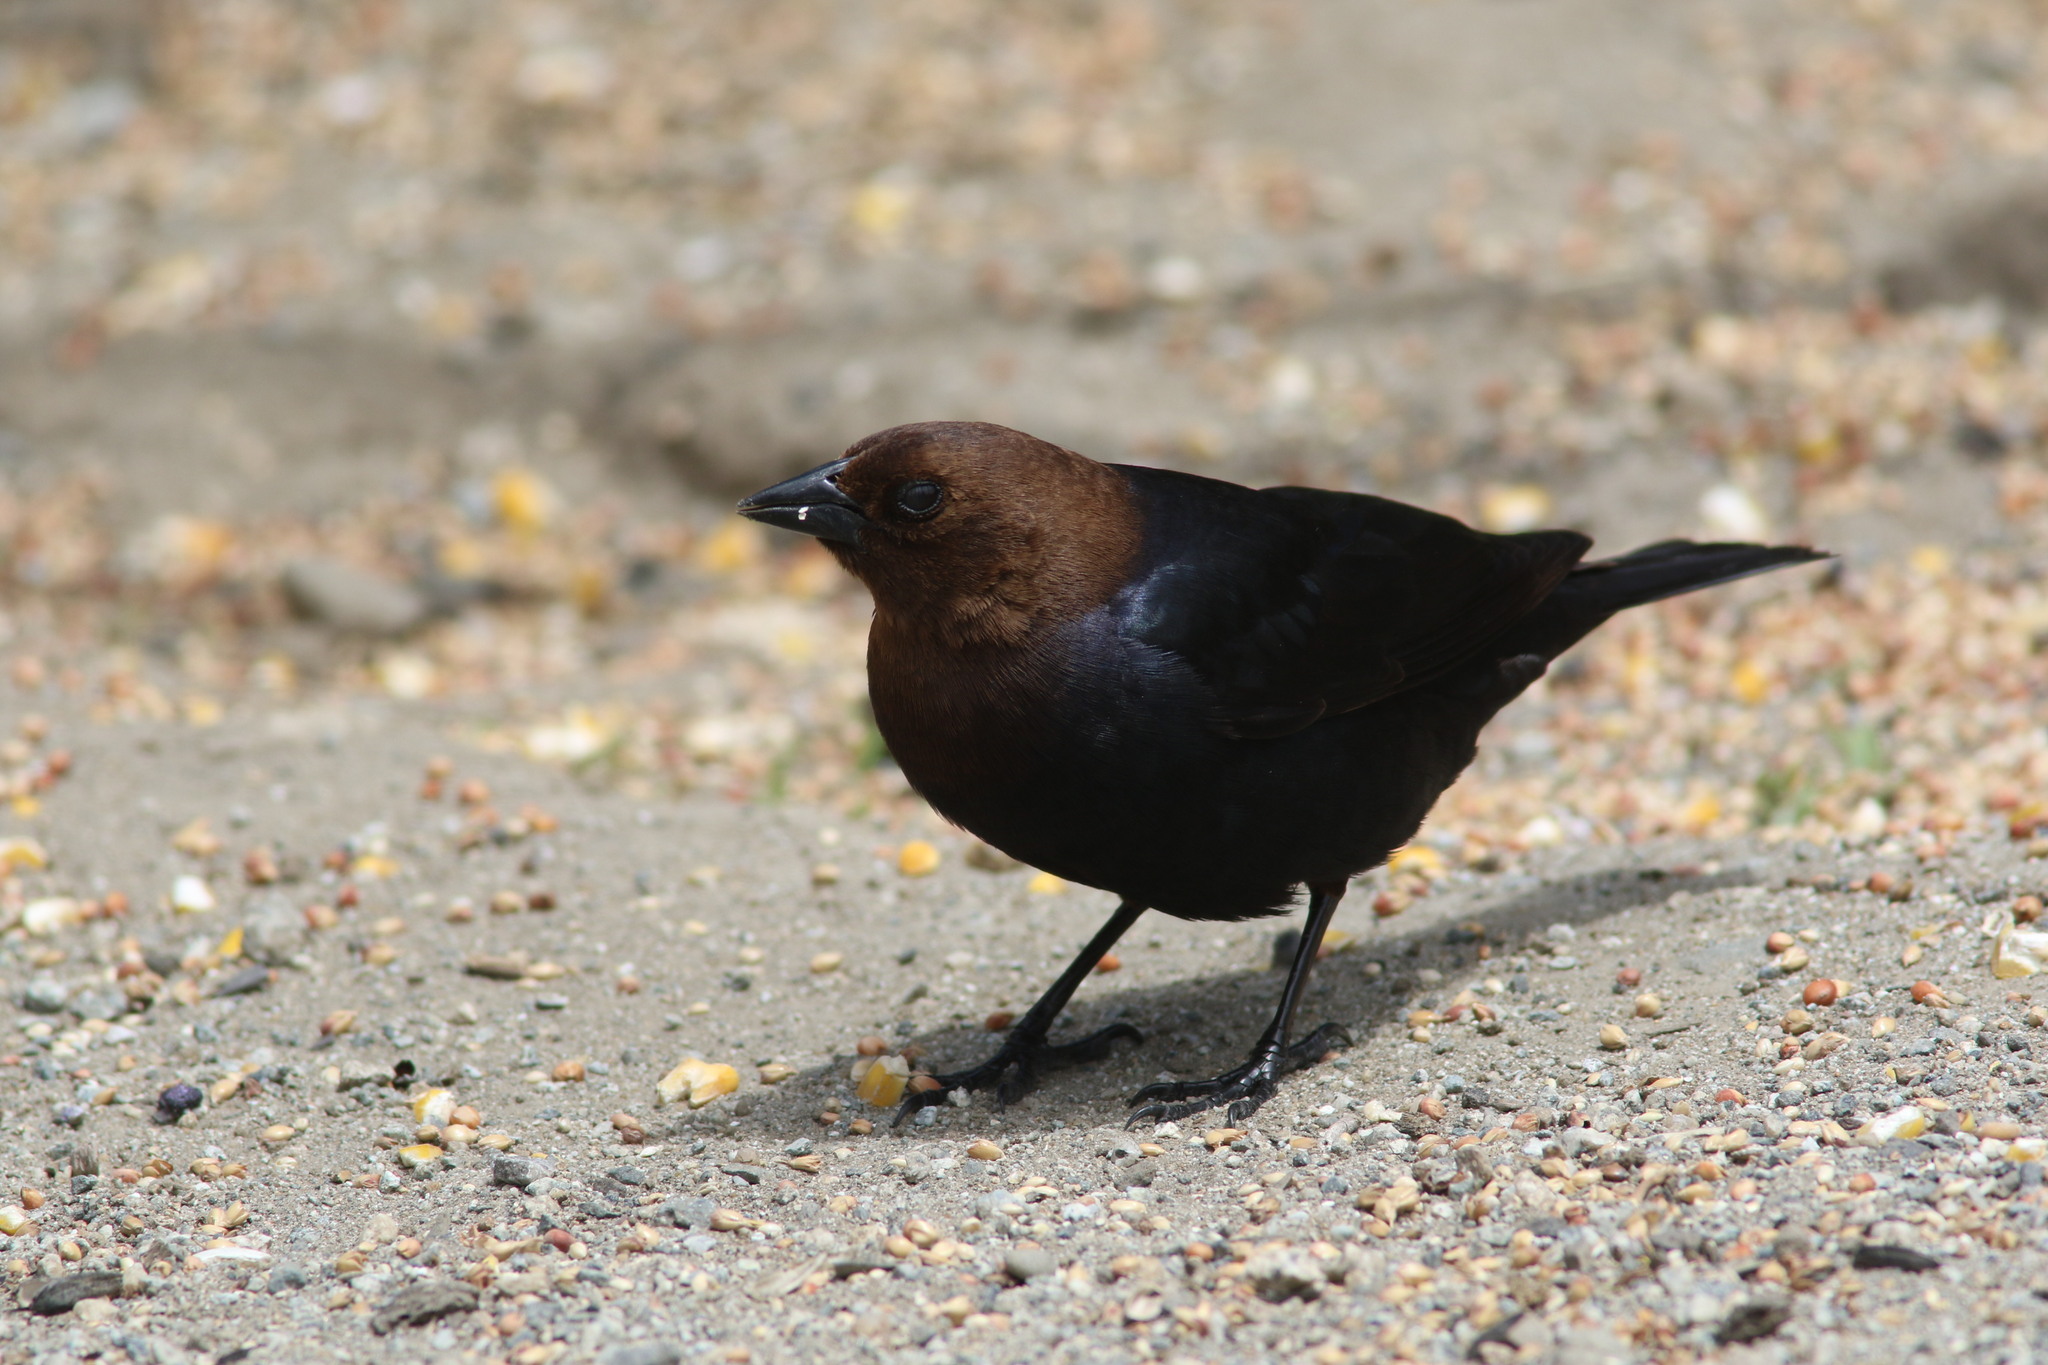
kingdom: Animalia
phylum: Chordata
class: Aves
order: Passeriformes
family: Icteridae
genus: Molothrus
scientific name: Molothrus ater
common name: Brown-headed cowbird
